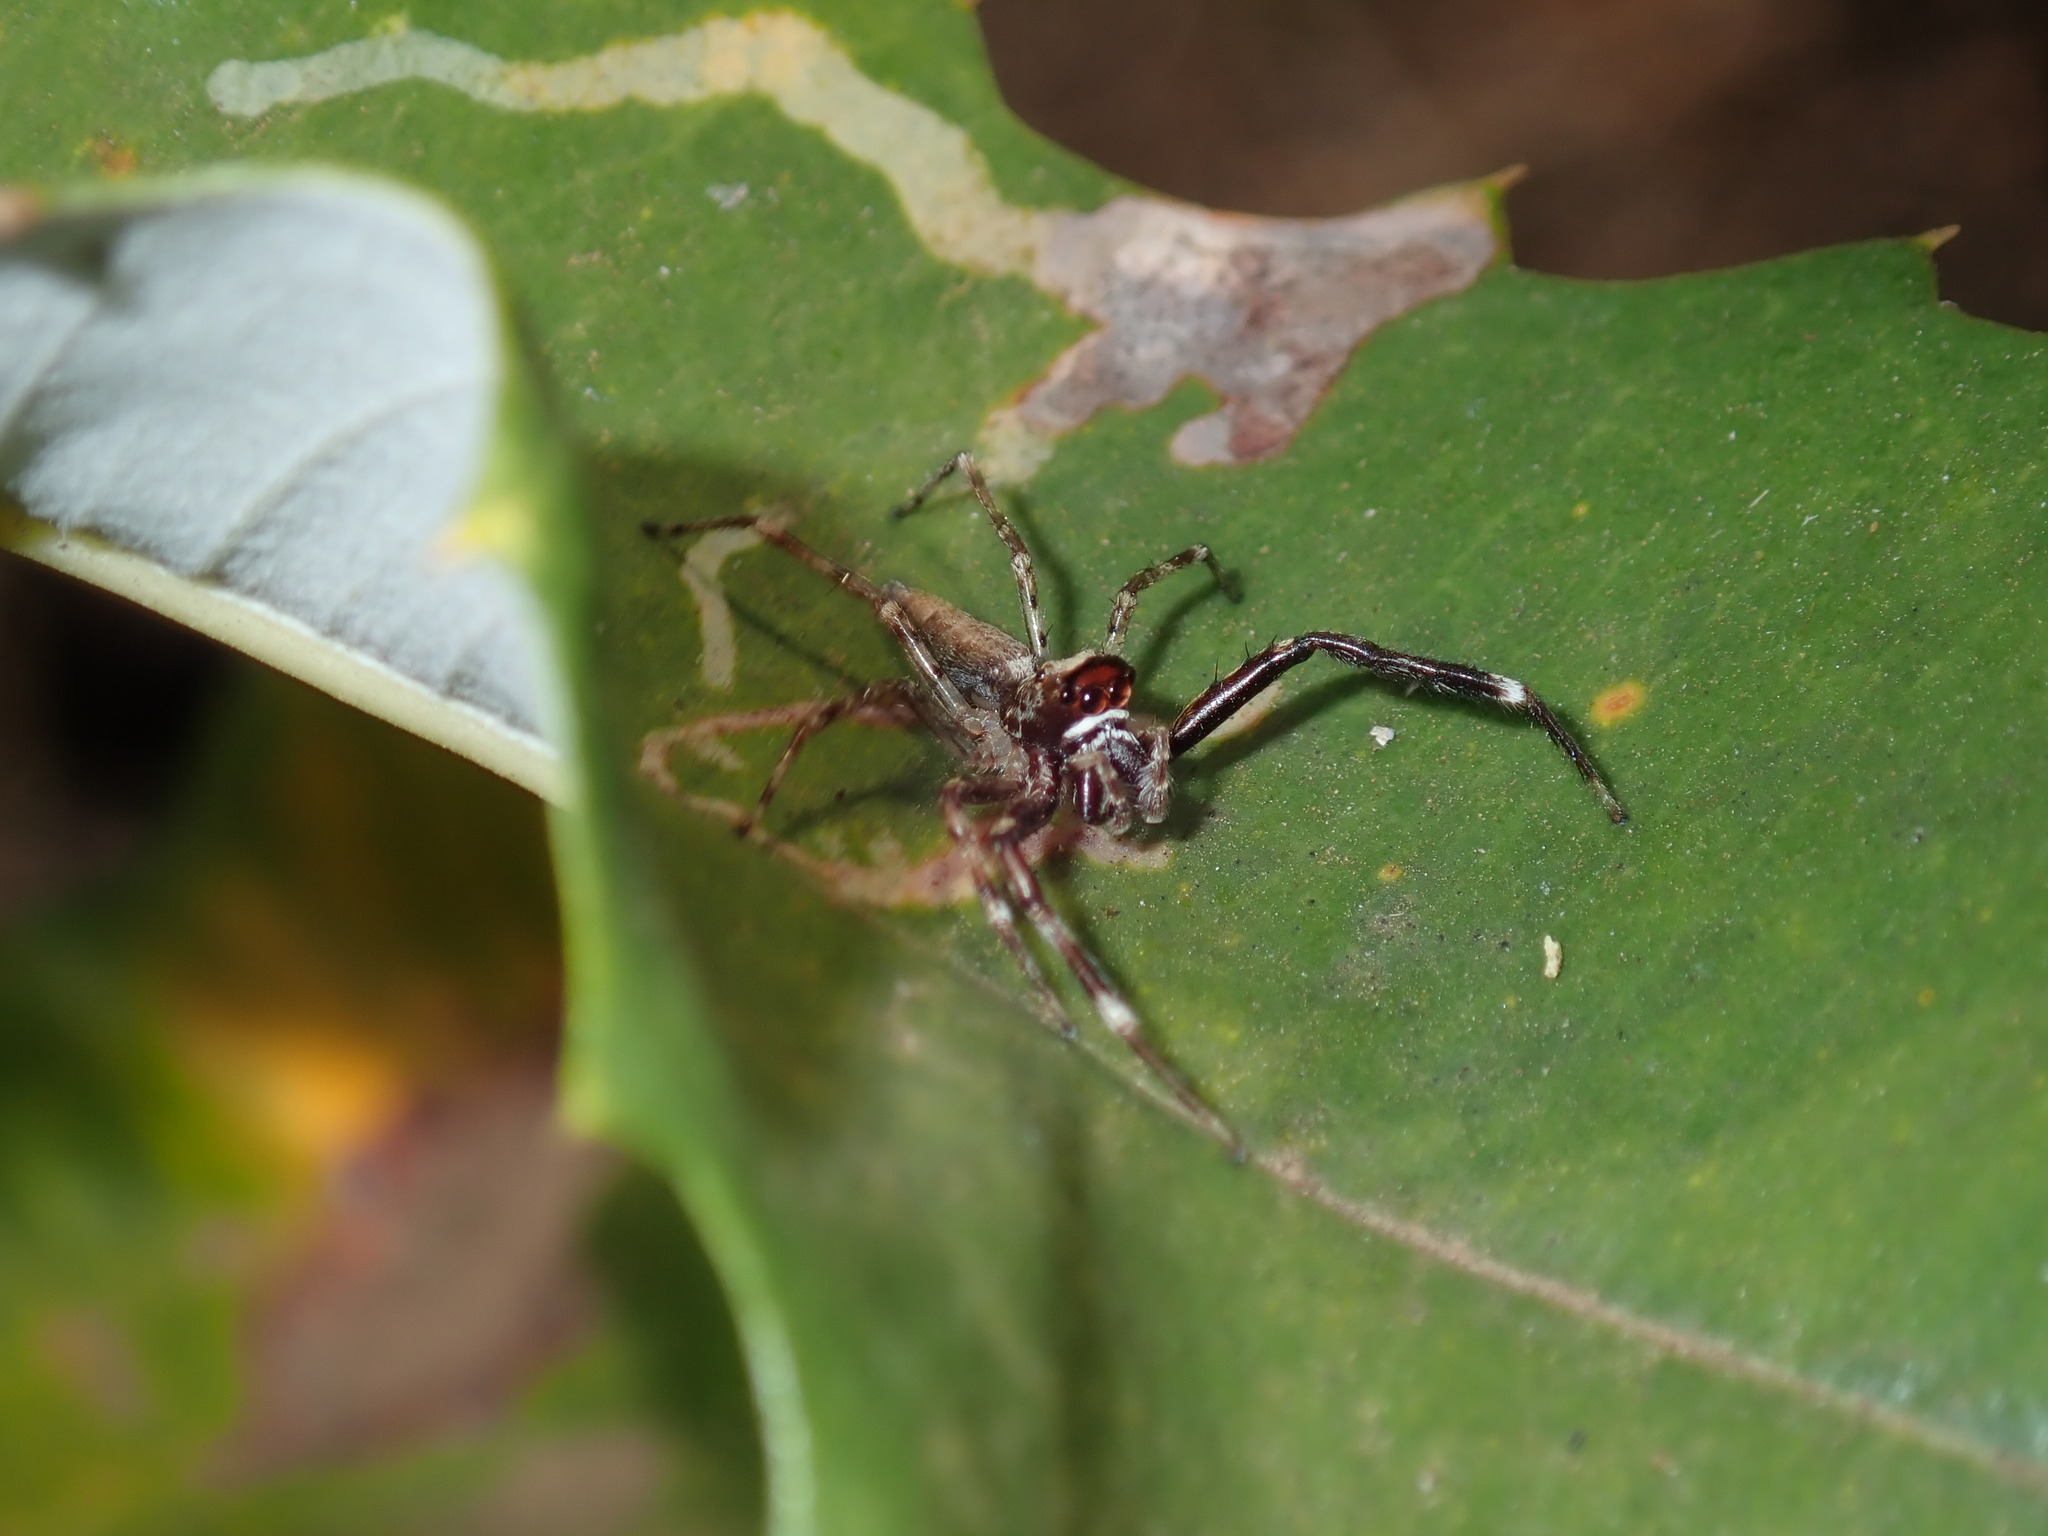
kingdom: Animalia
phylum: Arthropoda
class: Arachnida
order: Araneae
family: Salticidae
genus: Helpis
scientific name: Helpis minitabunda
